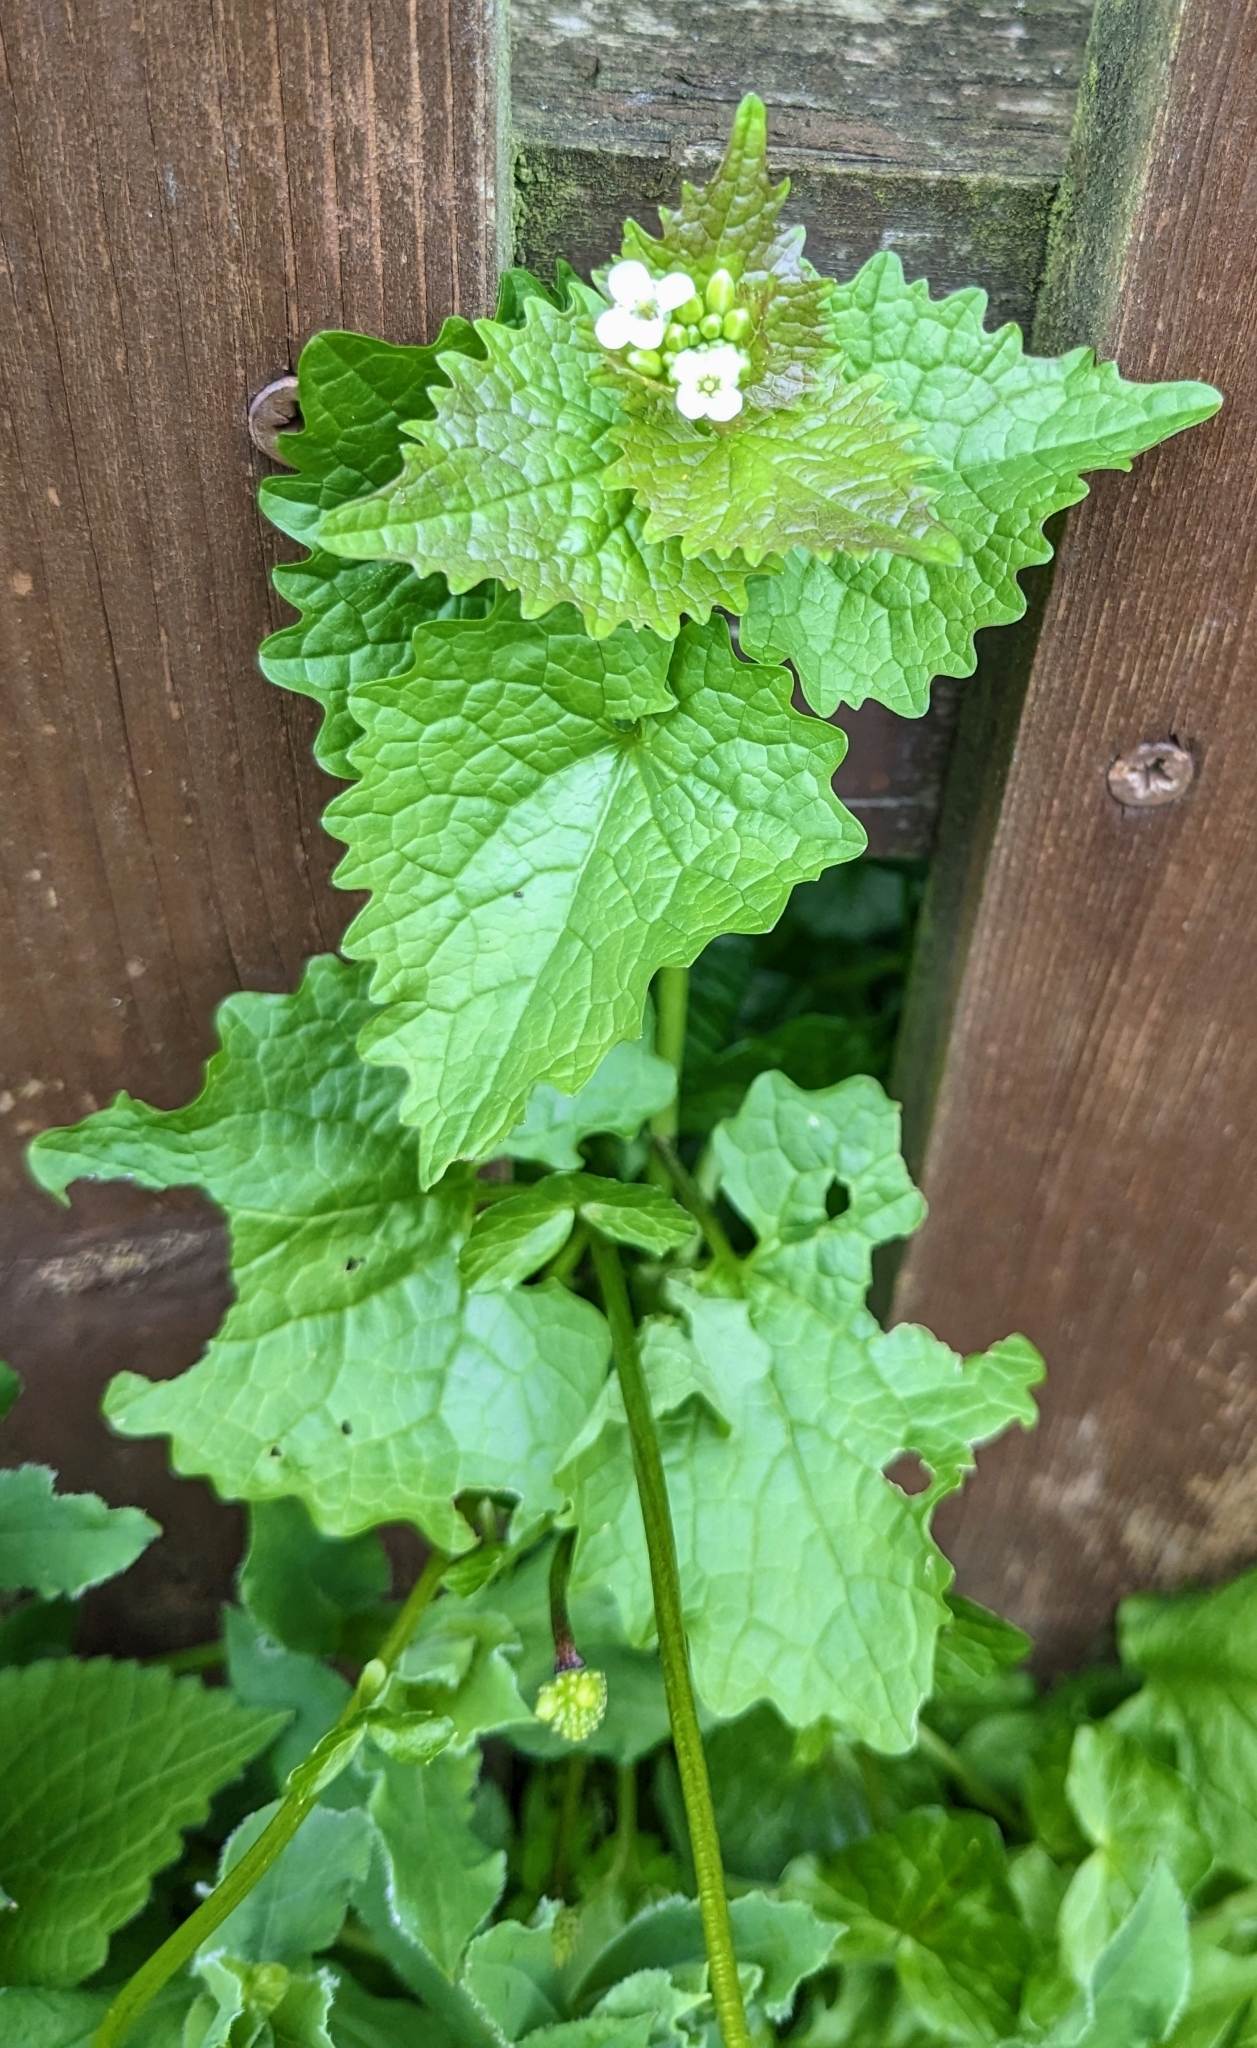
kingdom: Plantae
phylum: Tracheophyta
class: Magnoliopsida
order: Brassicales
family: Brassicaceae
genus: Alliaria
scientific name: Alliaria petiolata
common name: Garlic mustard
